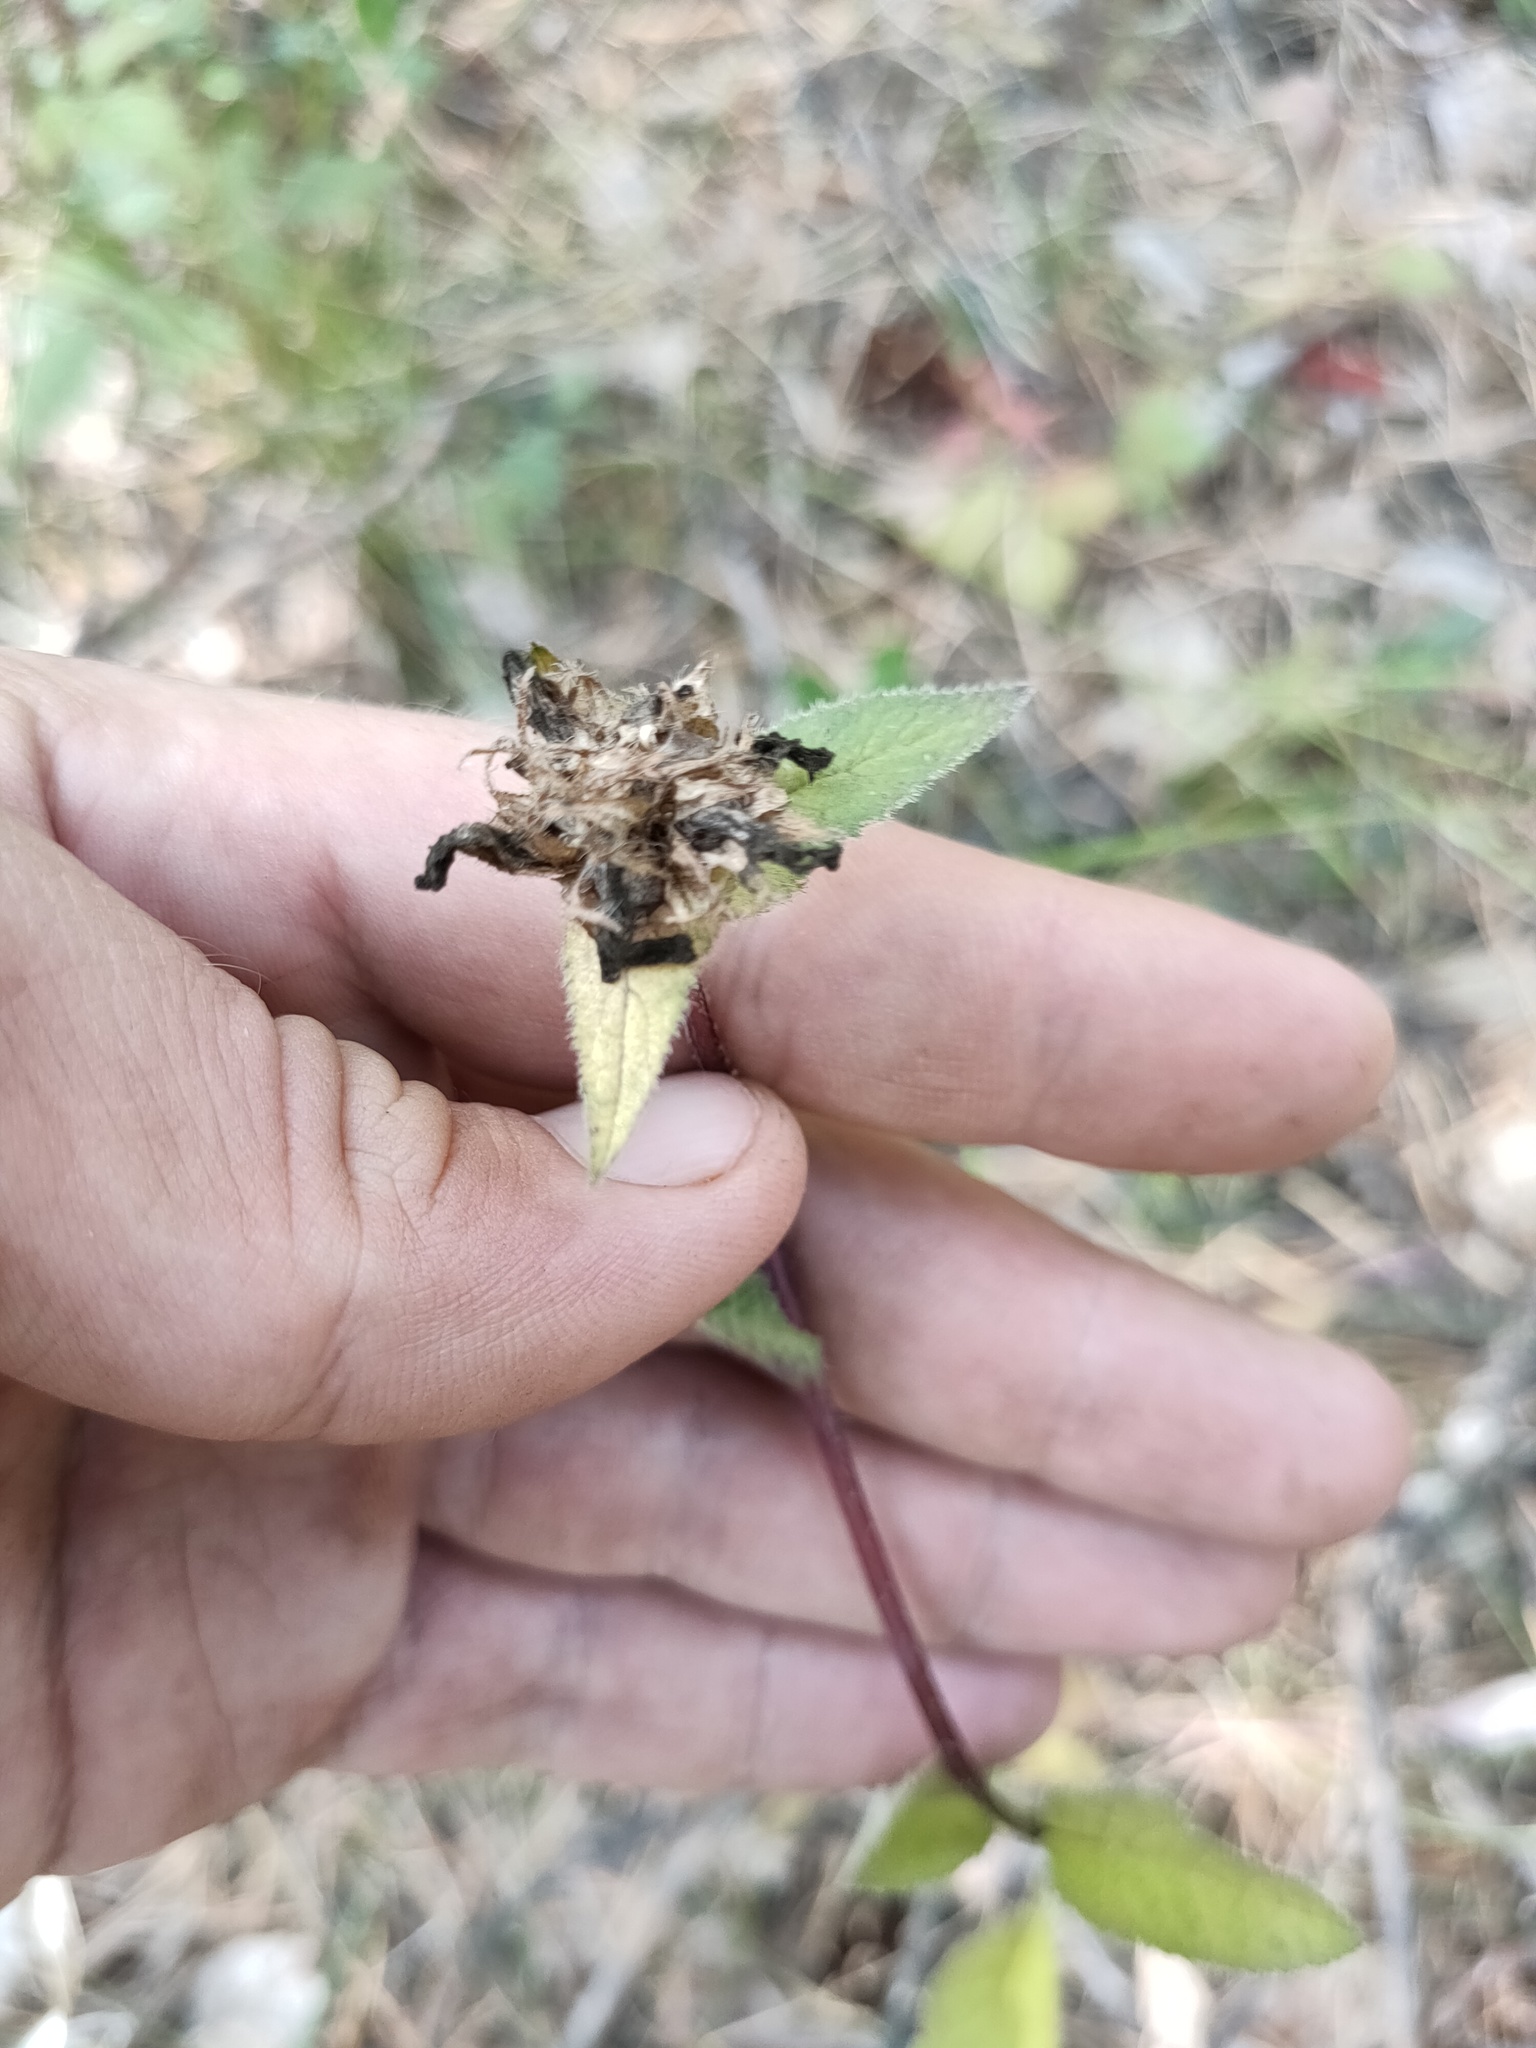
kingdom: Plantae
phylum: Tracheophyta
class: Magnoliopsida
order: Asterales
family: Campanulaceae
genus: Campanula
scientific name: Campanula glomerata
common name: Clustered bellflower
